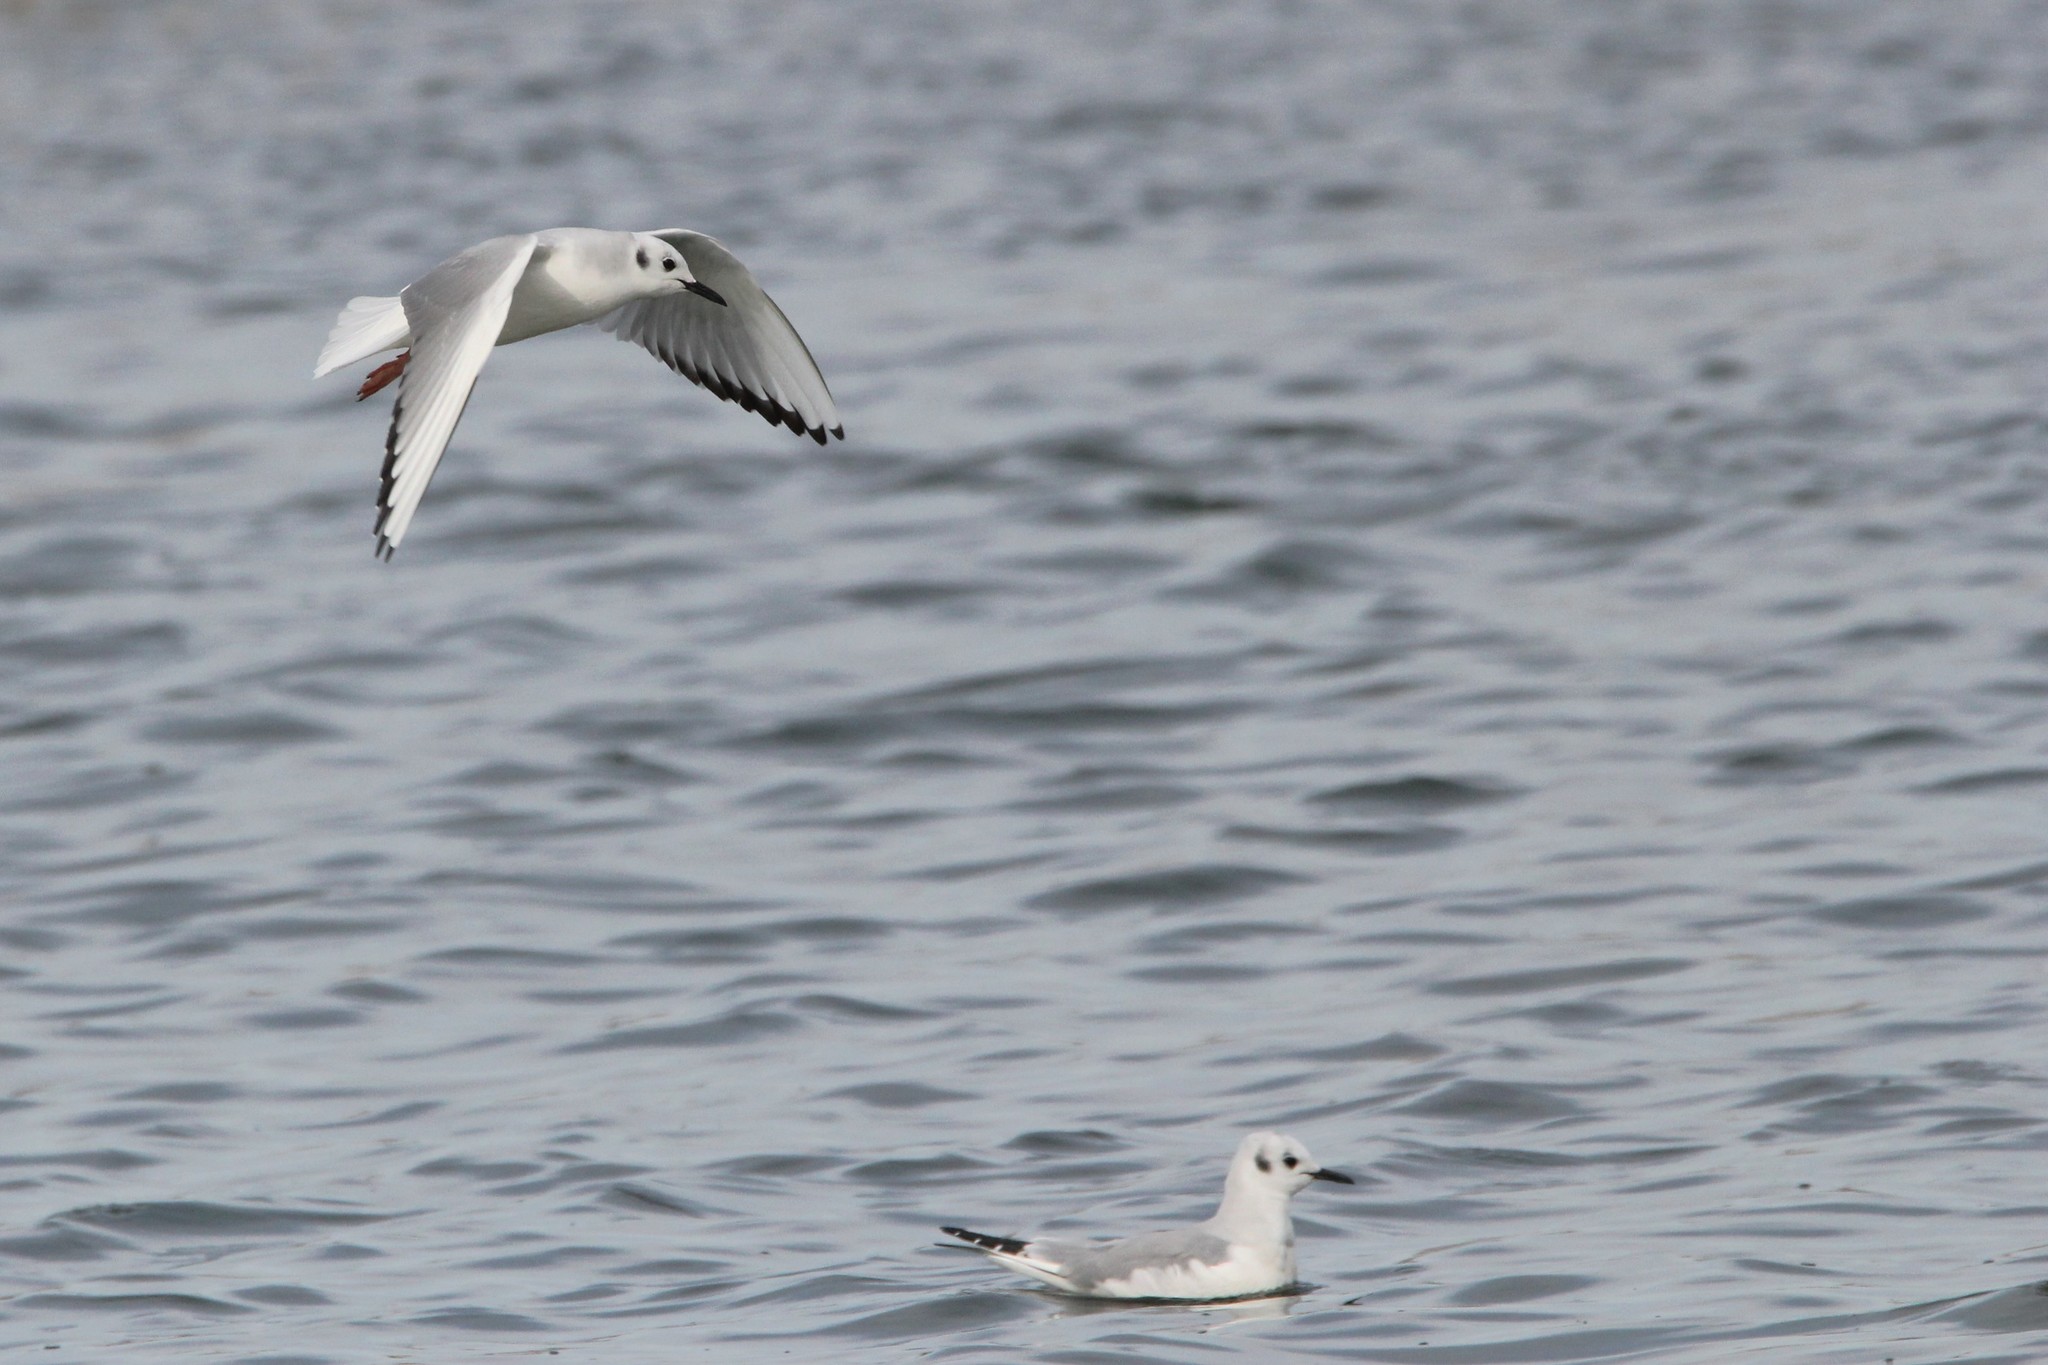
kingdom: Animalia
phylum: Chordata
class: Aves
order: Charadriiformes
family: Laridae
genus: Chroicocephalus
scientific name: Chroicocephalus philadelphia
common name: Bonaparte's gull
